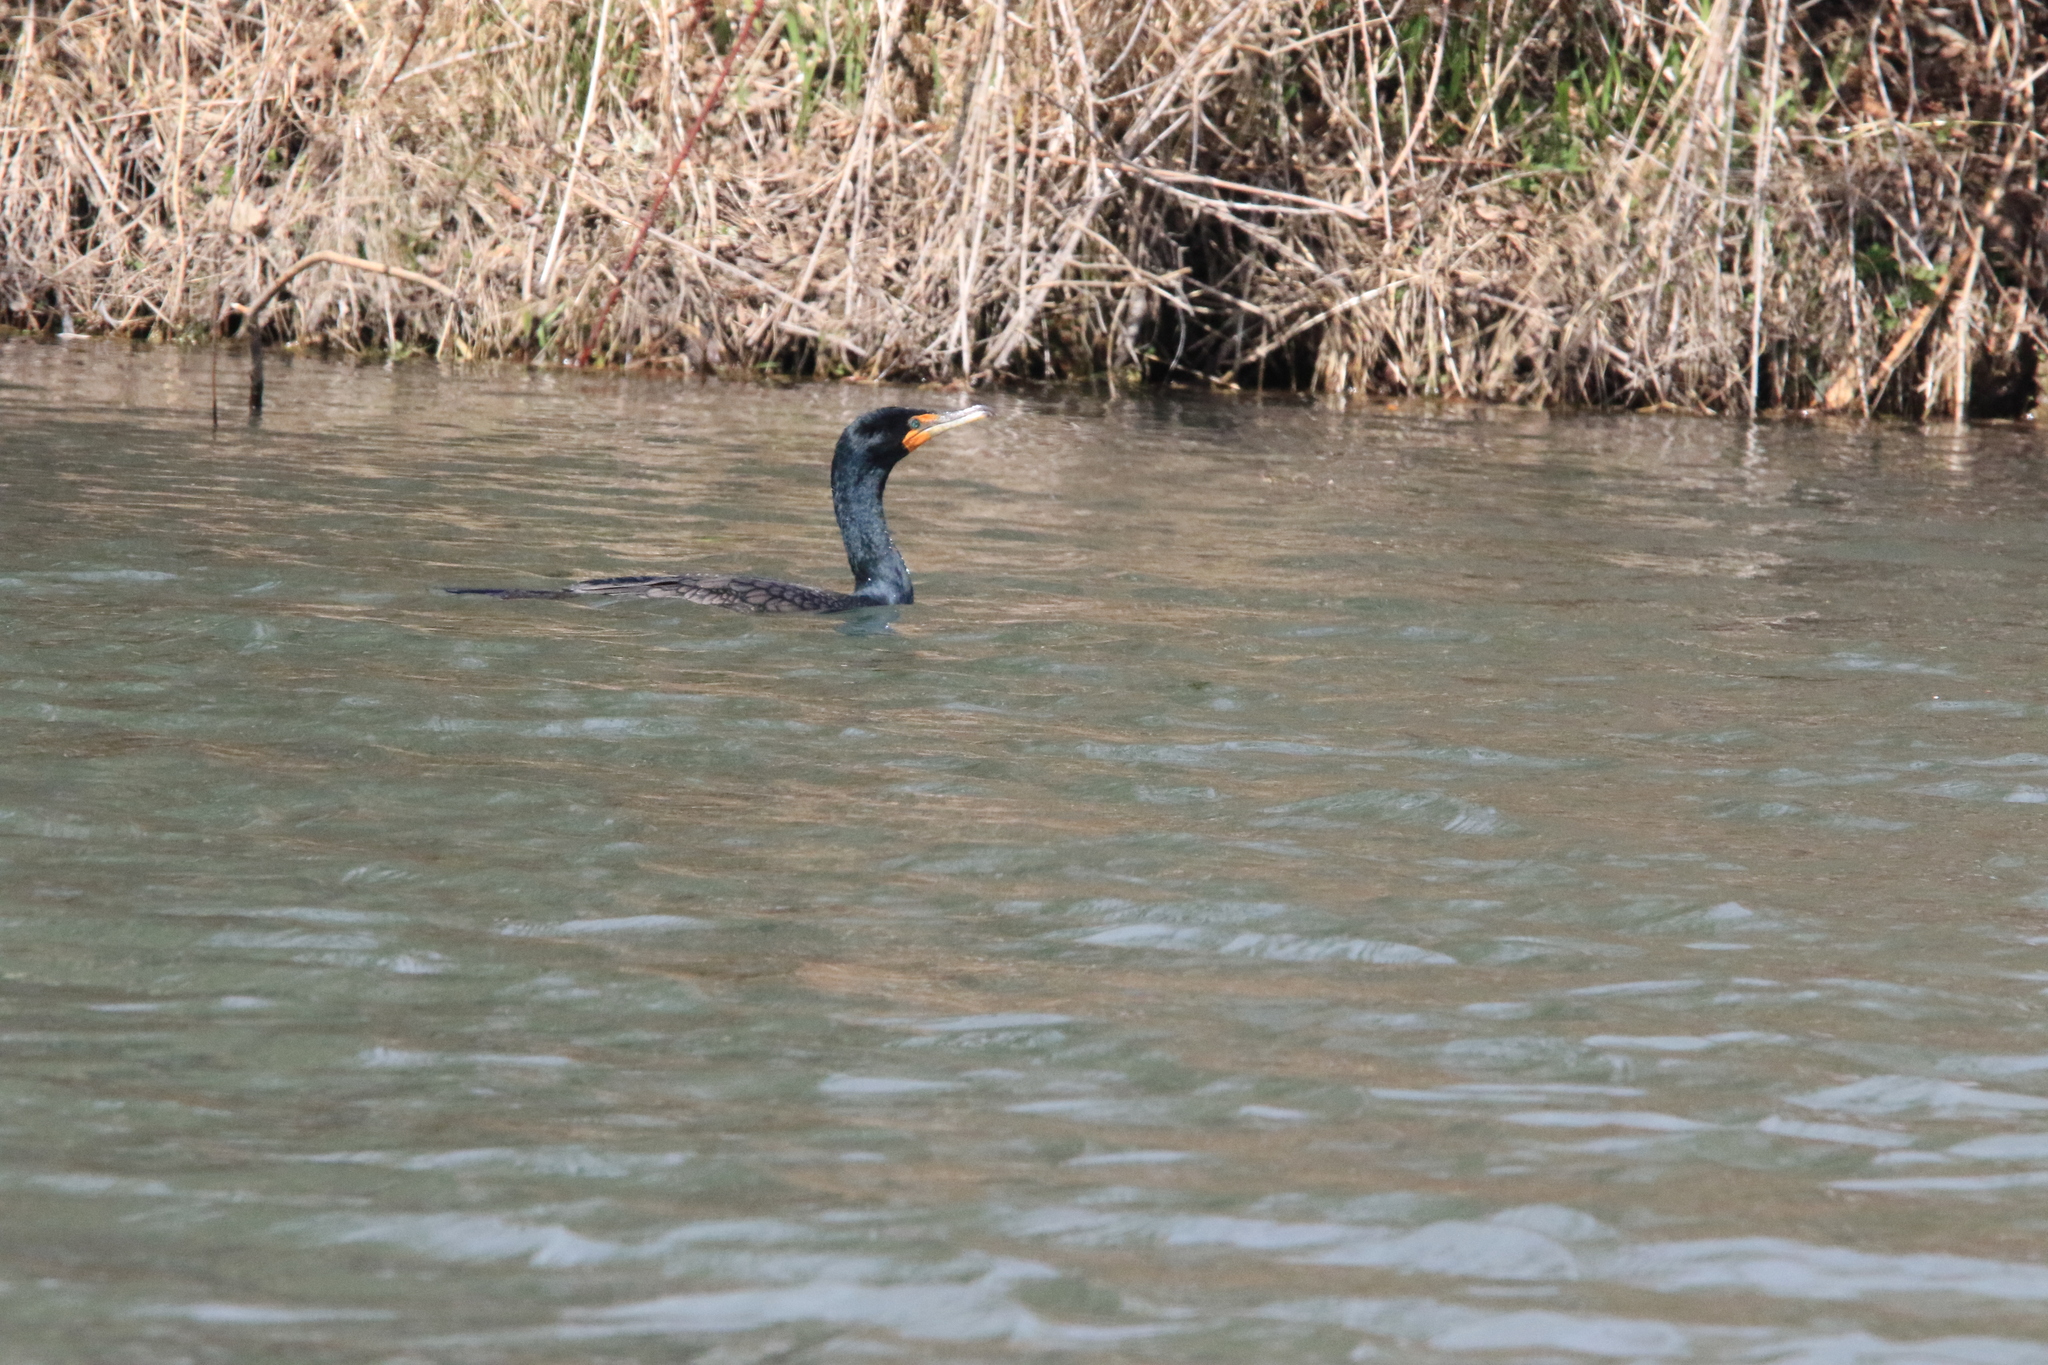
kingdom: Animalia
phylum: Chordata
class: Aves
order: Suliformes
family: Phalacrocoracidae
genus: Phalacrocorax
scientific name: Phalacrocorax auritus
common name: Double-crested cormorant
